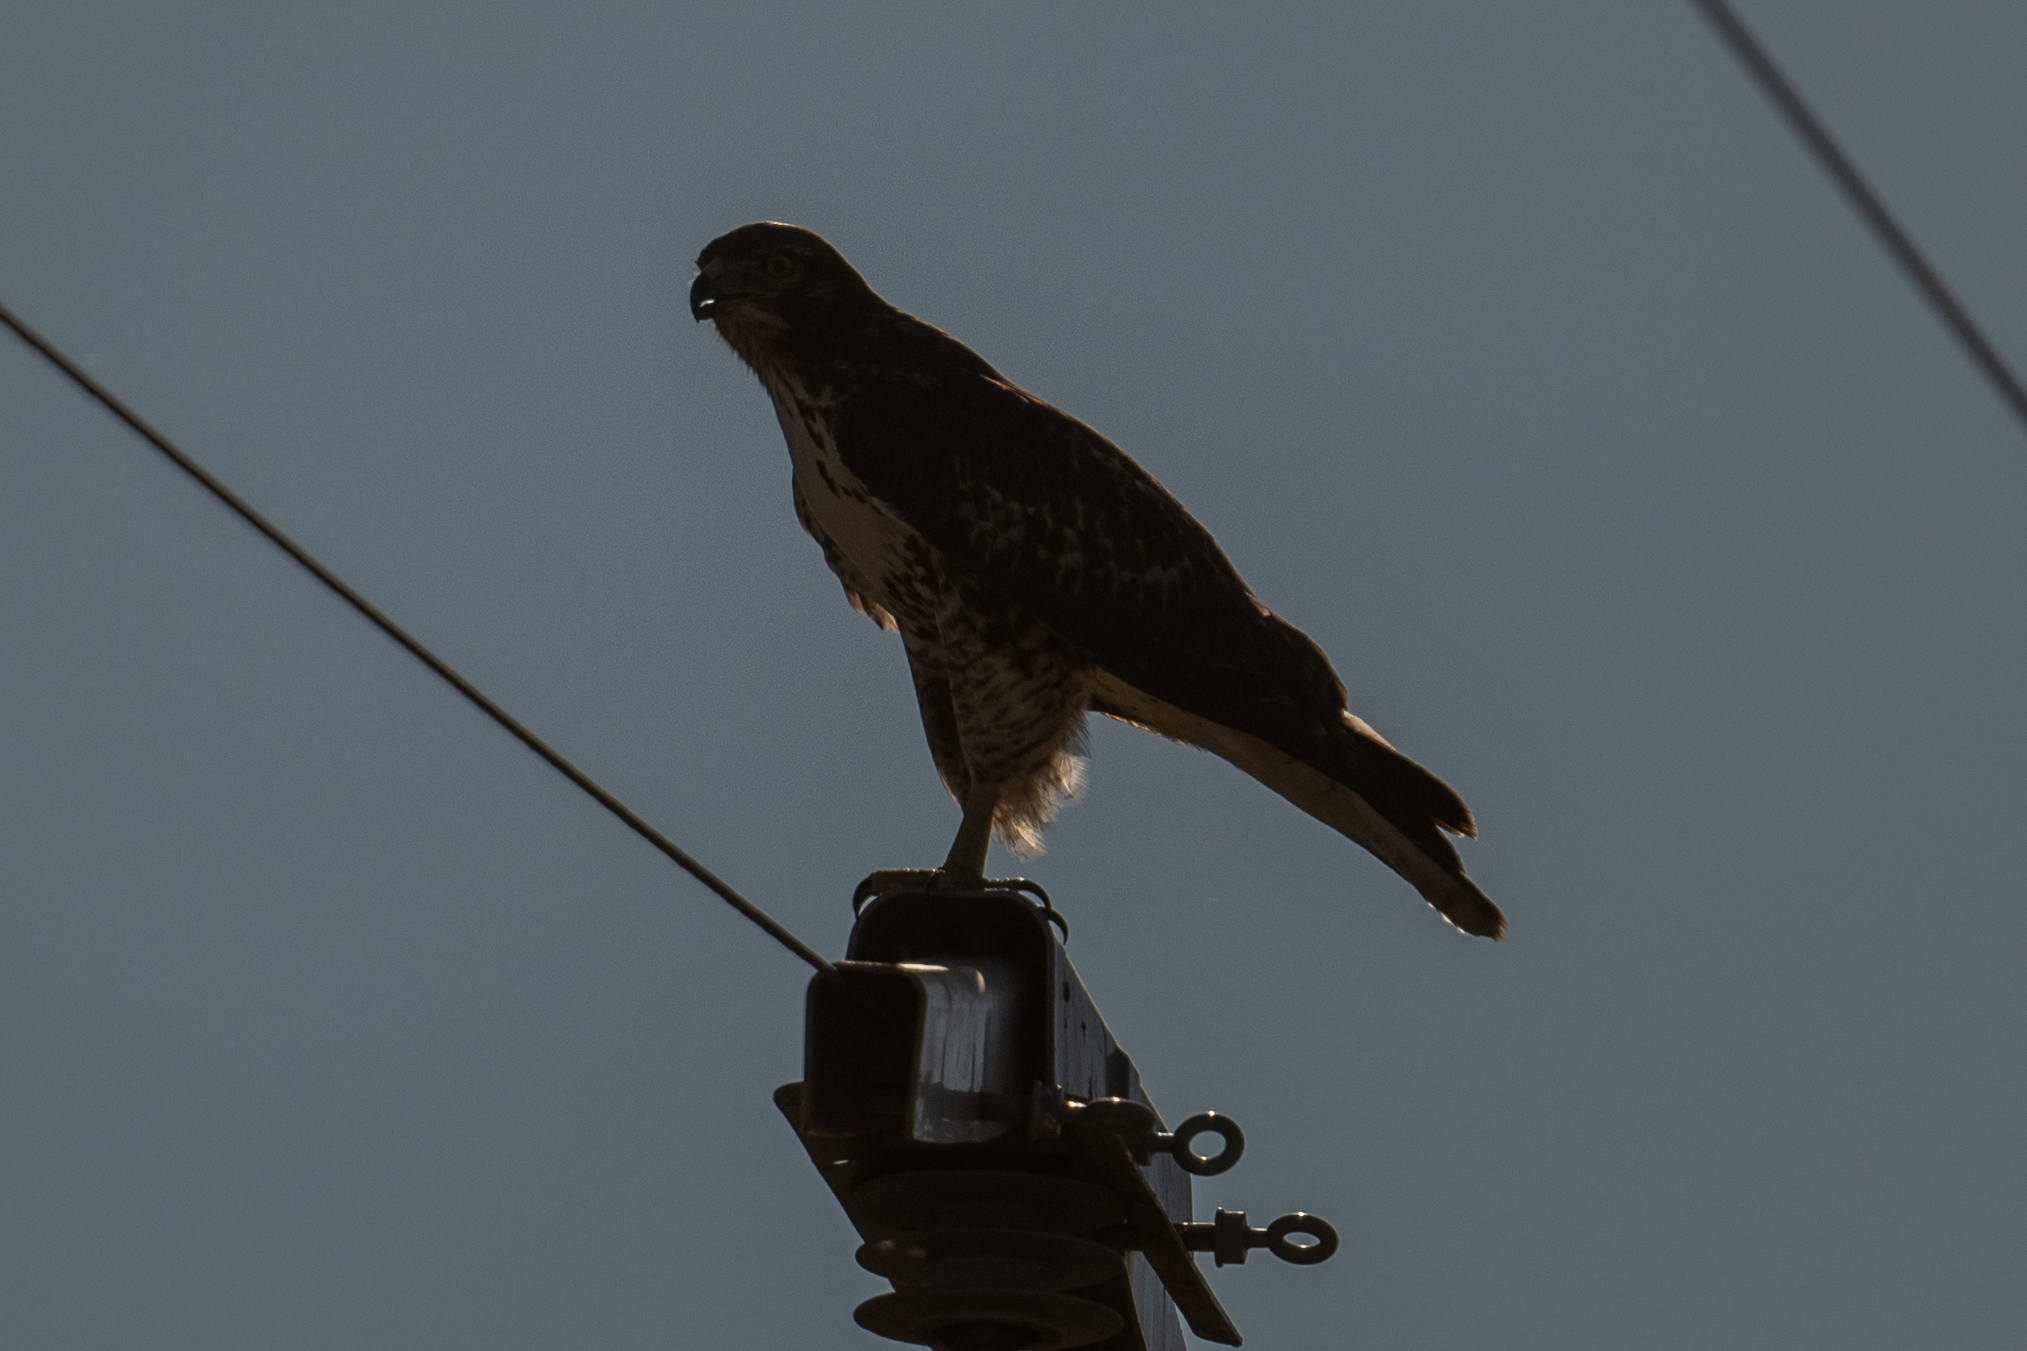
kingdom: Animalia
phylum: Chordata
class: Aves
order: Accipitriformes
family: Accipitridae
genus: Buteo
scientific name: Buteo jamaicensis
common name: Red-tailed hawk
